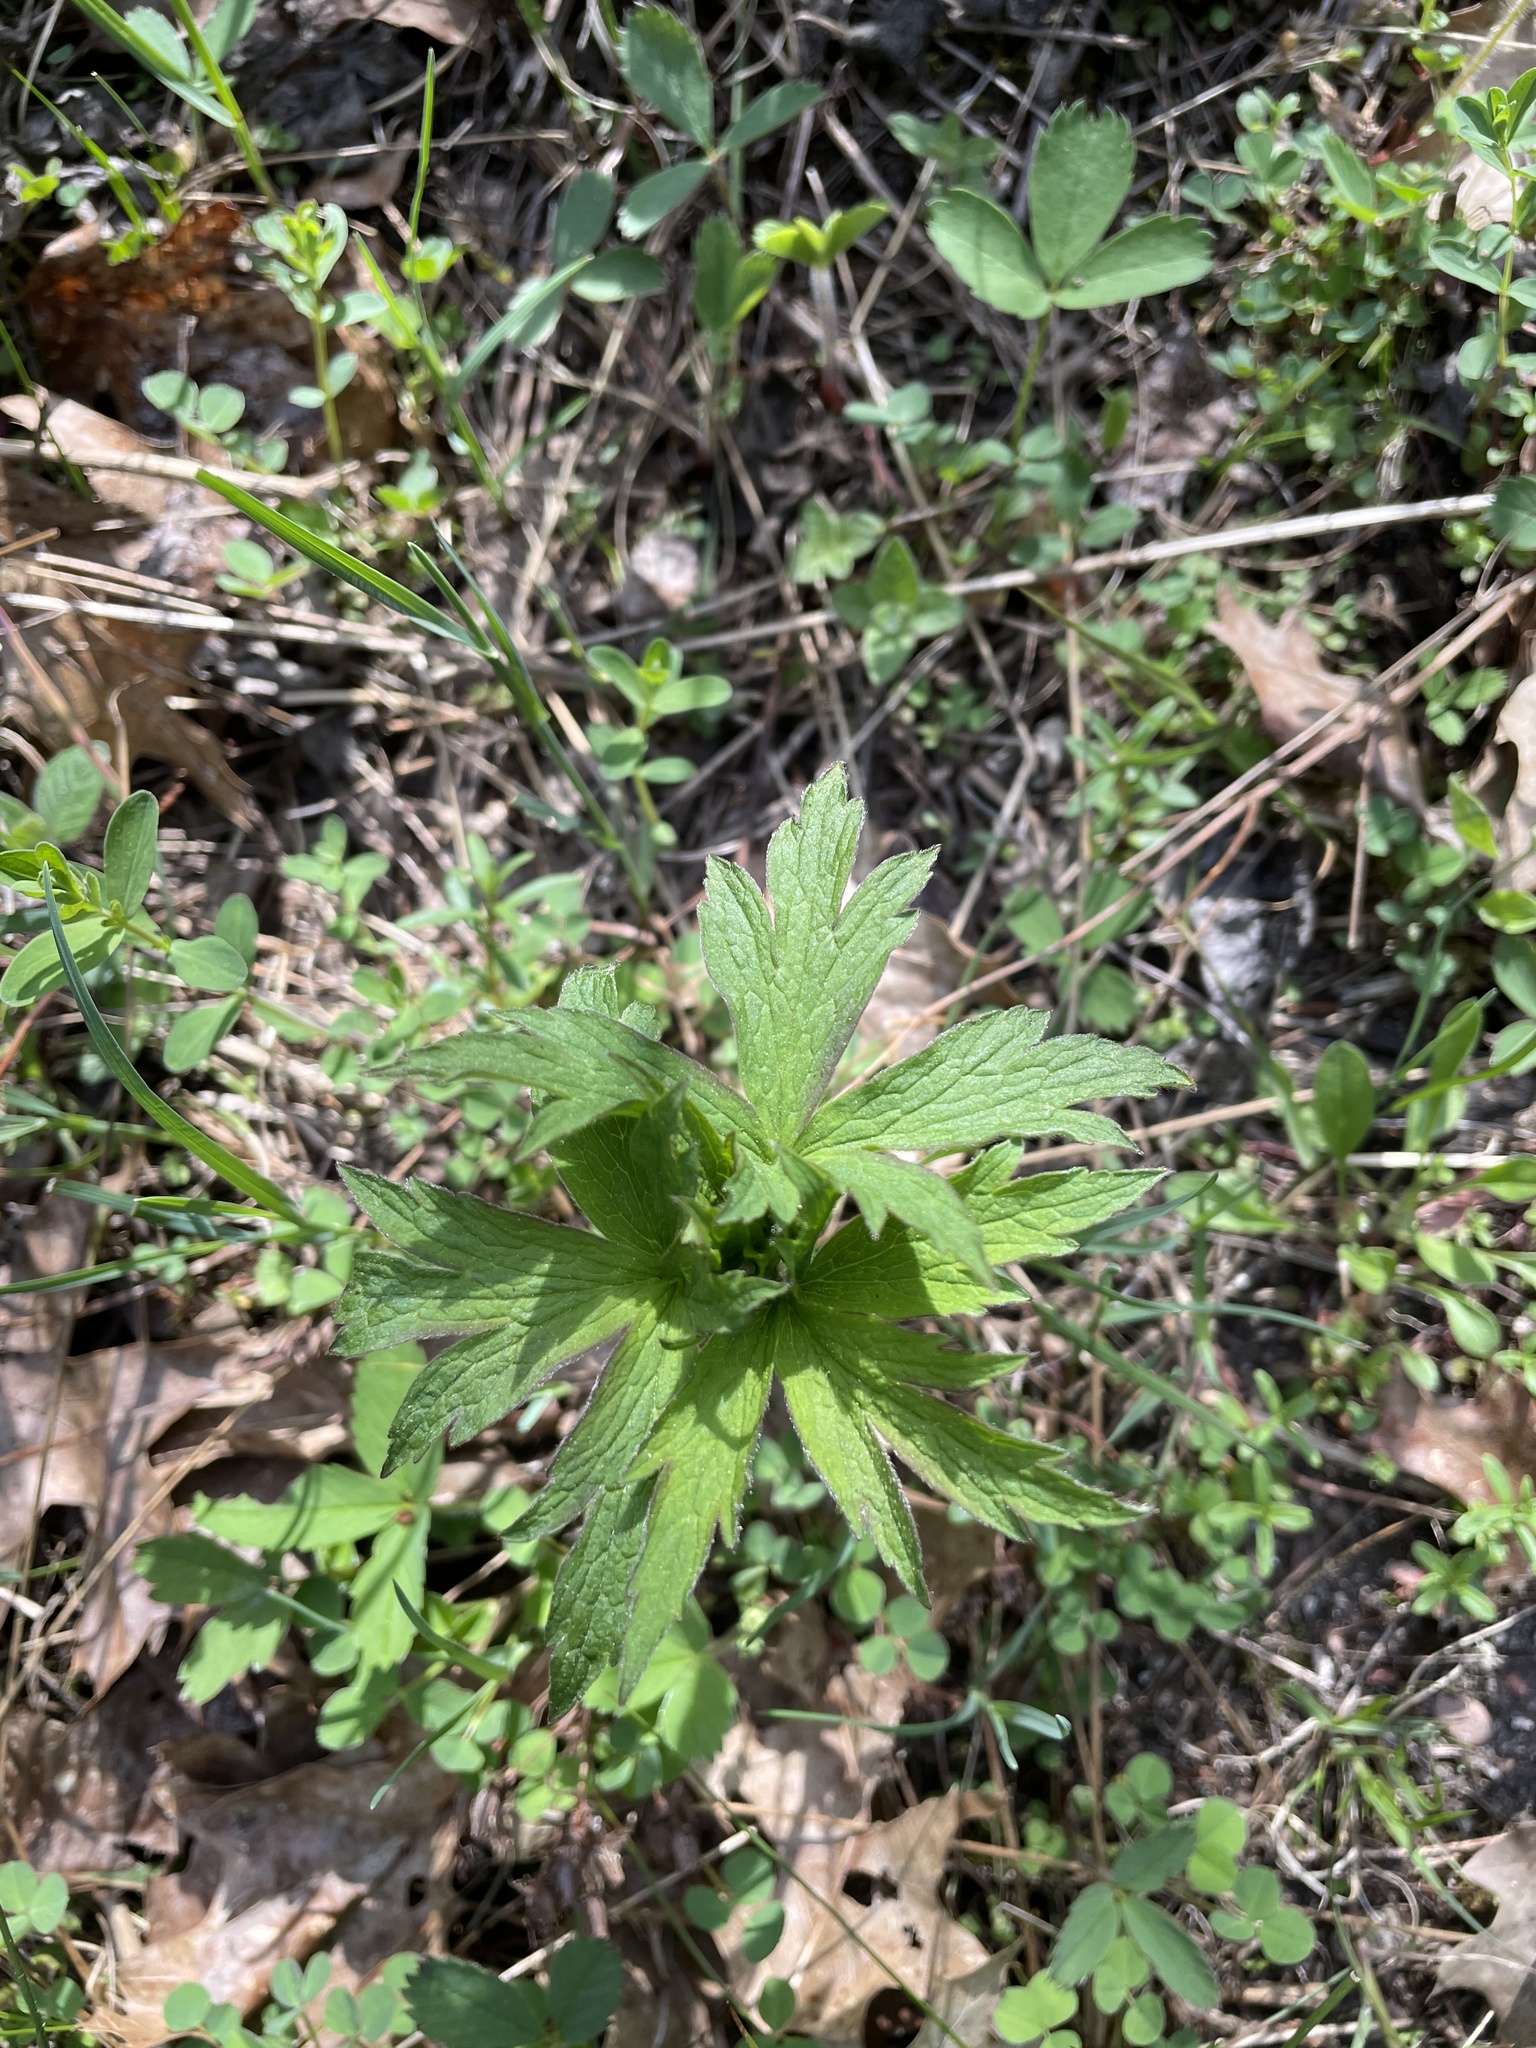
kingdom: Plantae
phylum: Tracheophyta
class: Magnoliopsida
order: Ranunculales
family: Ranunculaceae
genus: Anemone
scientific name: Anemone virginiana
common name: Tall anemone
